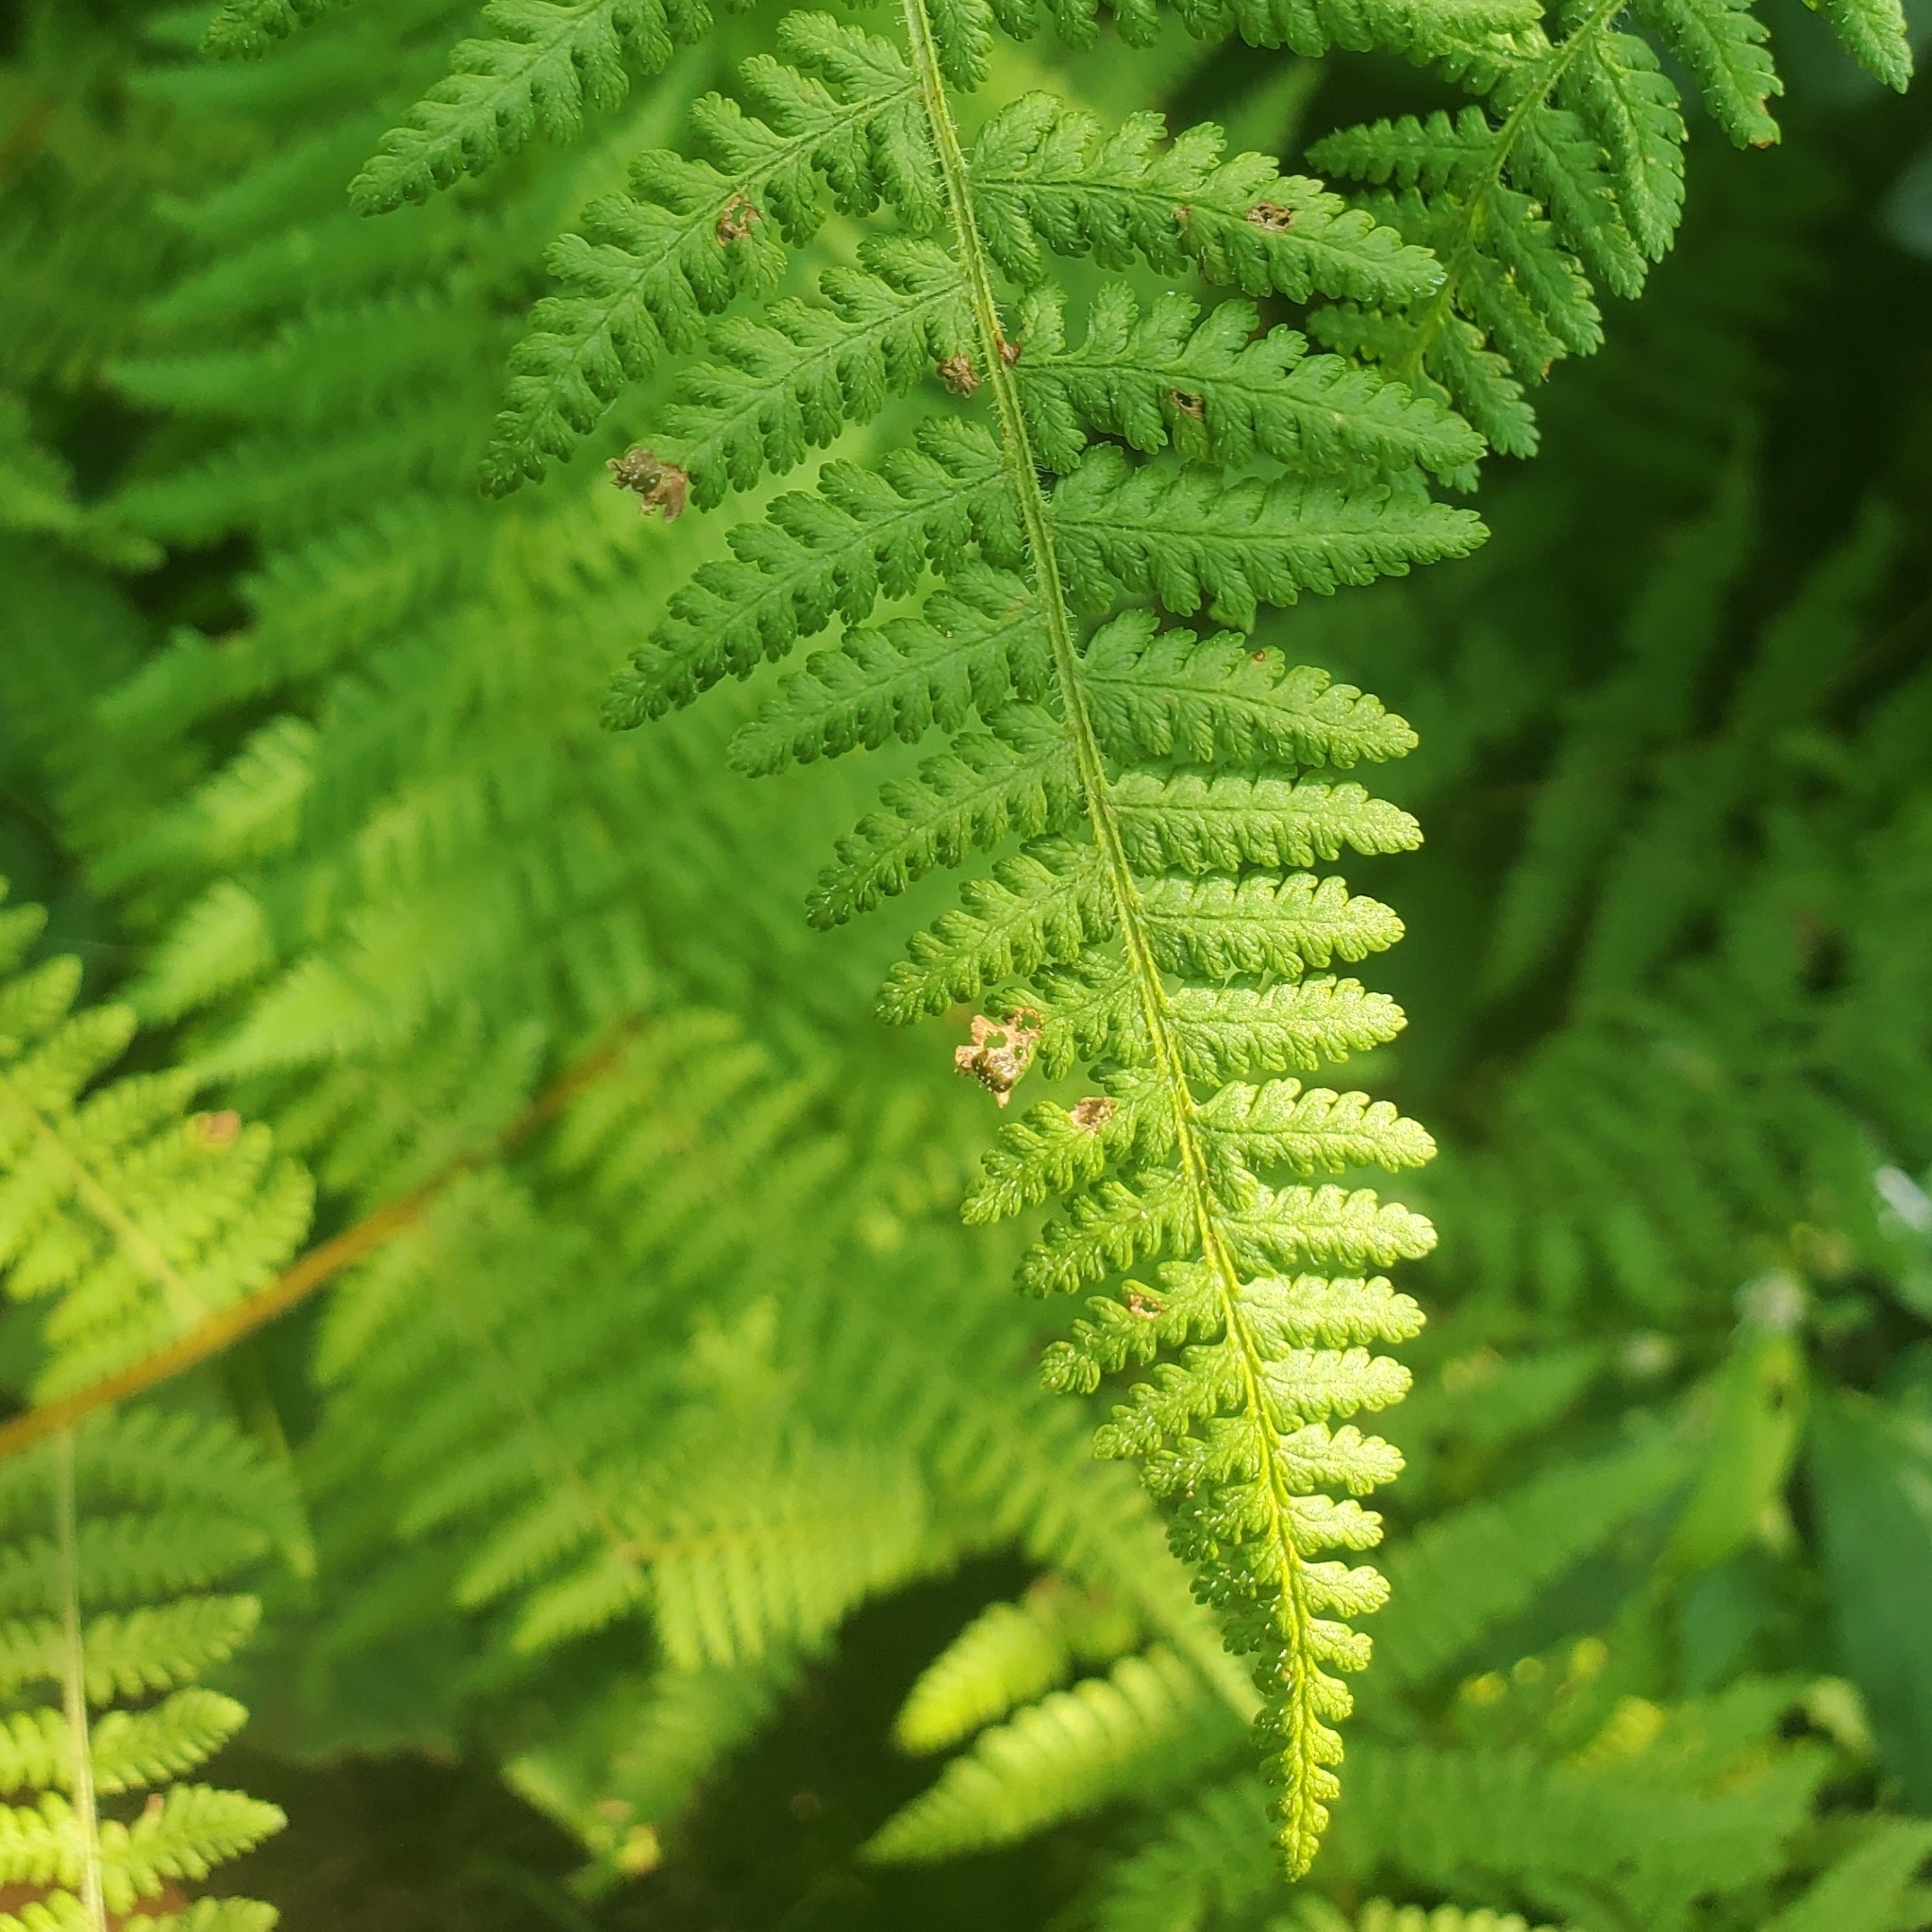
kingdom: Plantae
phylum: Tracheophyta
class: Polypodiopsida
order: Polypodiales
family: Dennstaedtiaceae
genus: Sitobolium
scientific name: Sitobolium punctilobum
